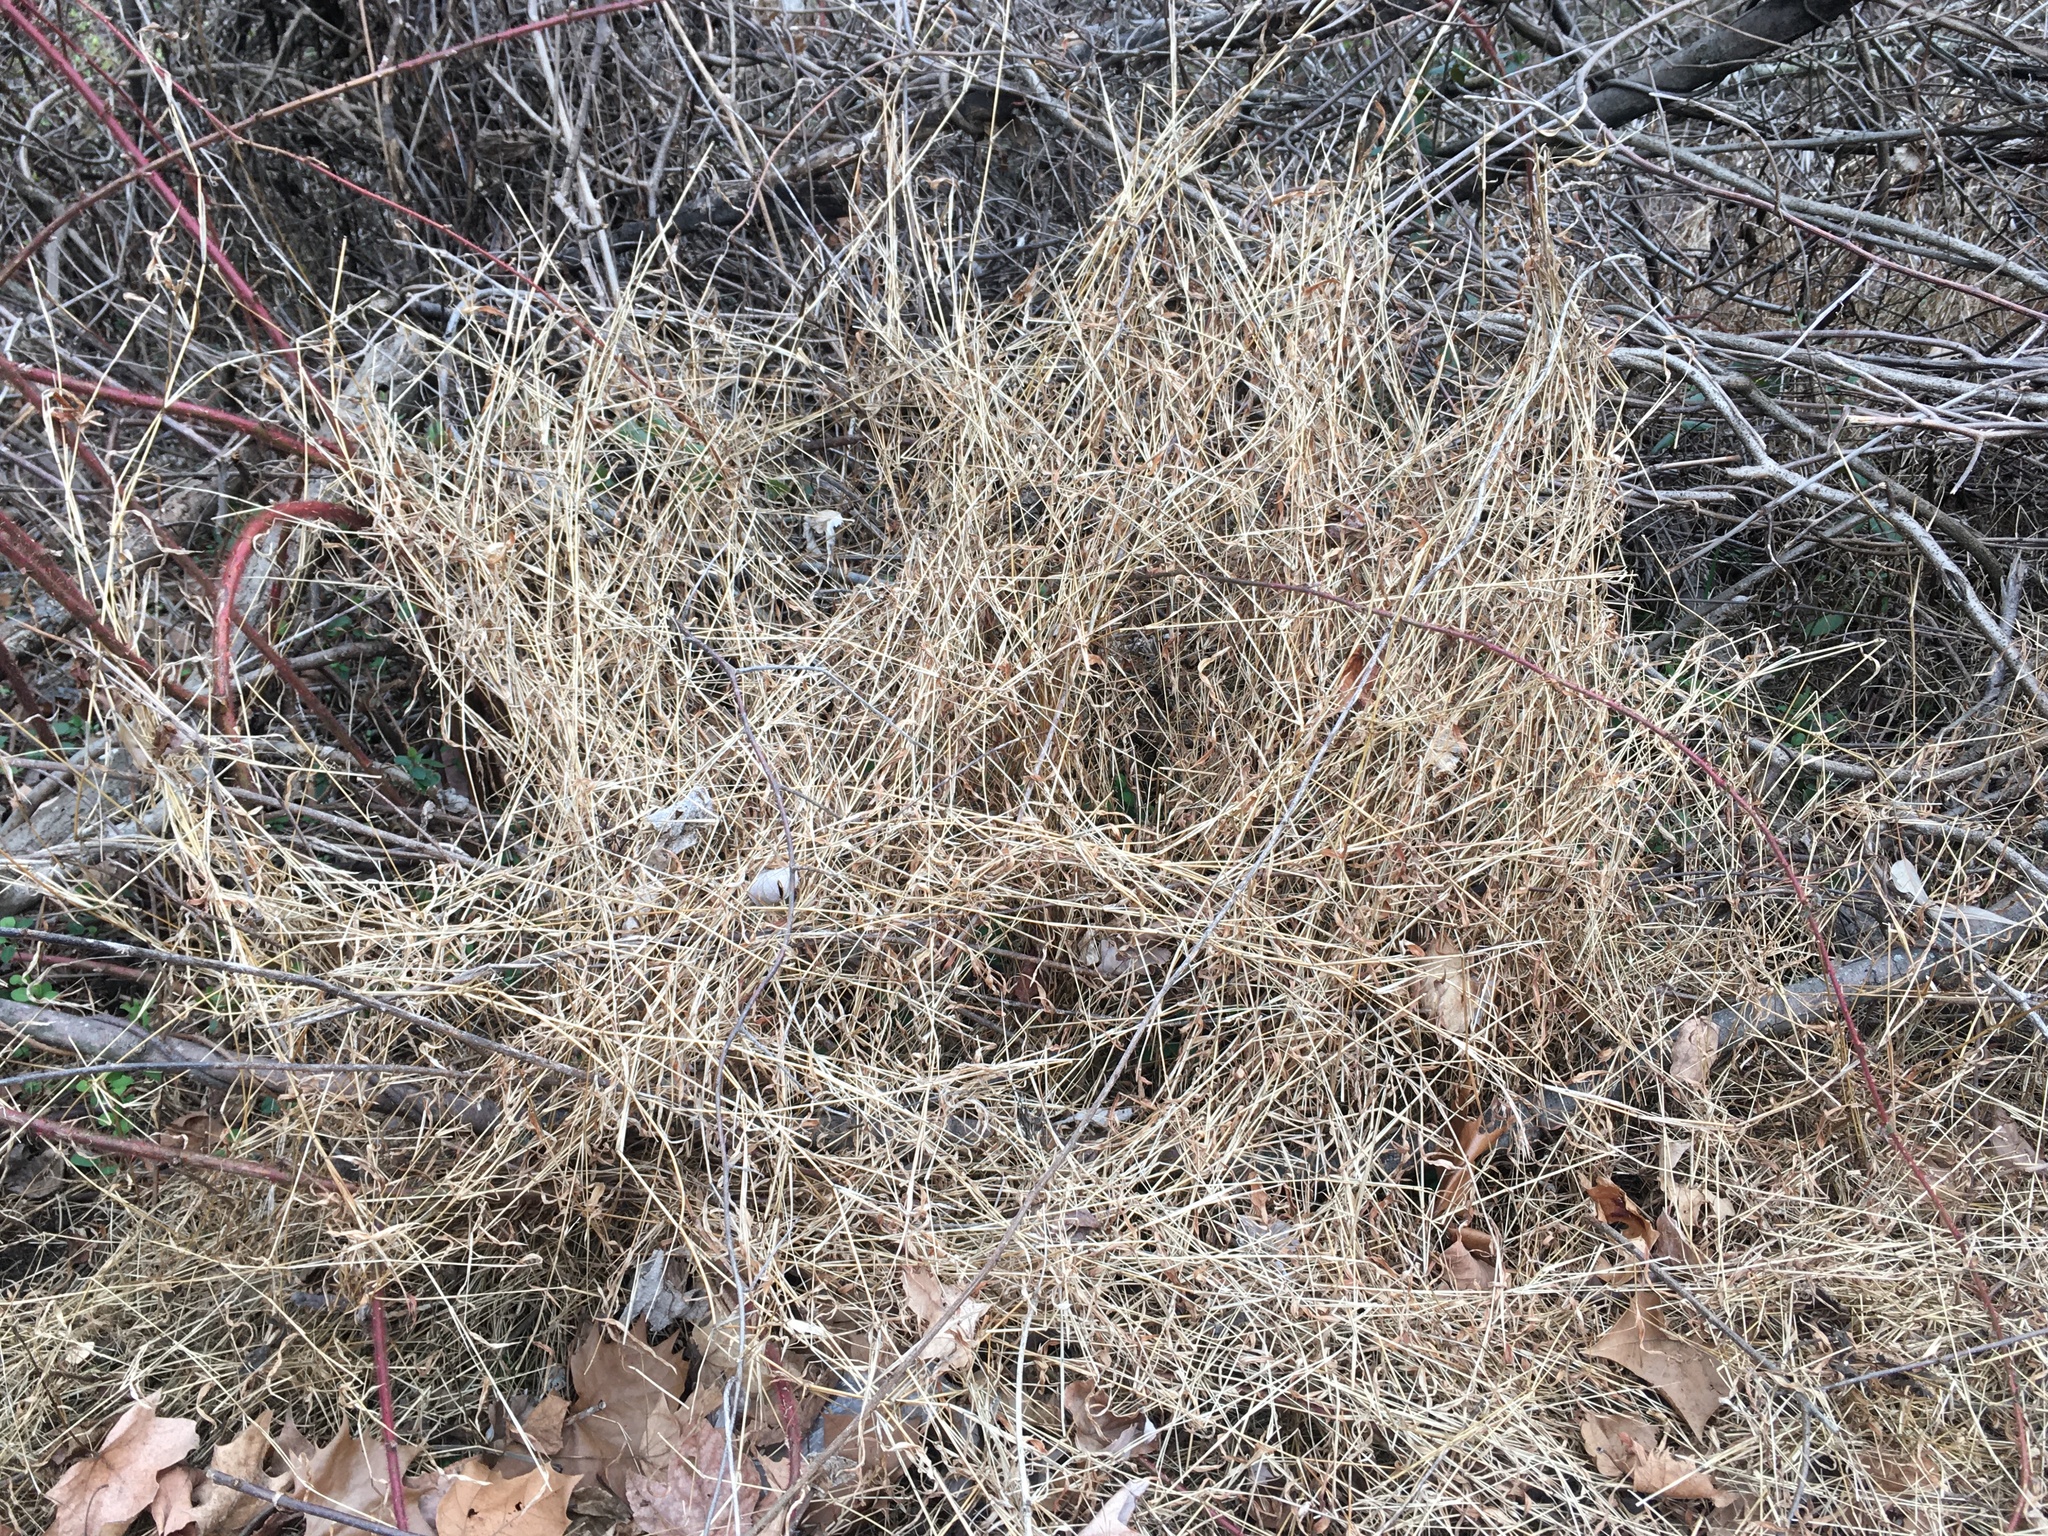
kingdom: Plantae
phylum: Tracheophyta
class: Liliopsida
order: Poales
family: Poaceae
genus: Microstegium
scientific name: Microstegium vimineum
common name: Japanese stiltgrass
